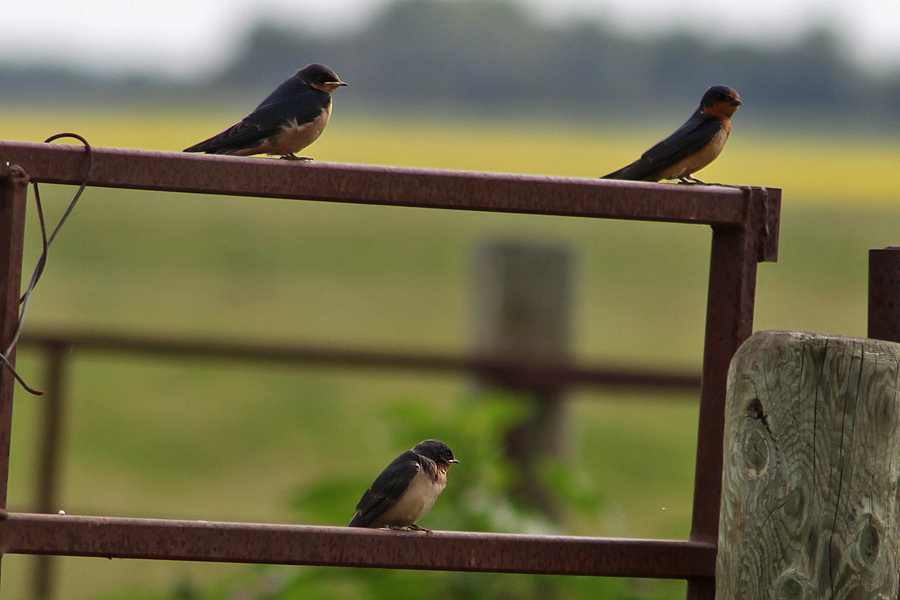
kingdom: Animalia
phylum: Chordata
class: Aves
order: Passeriformes
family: Hirundinidae
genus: Hirundo
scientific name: Hirundo rustica
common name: Barn swallow
